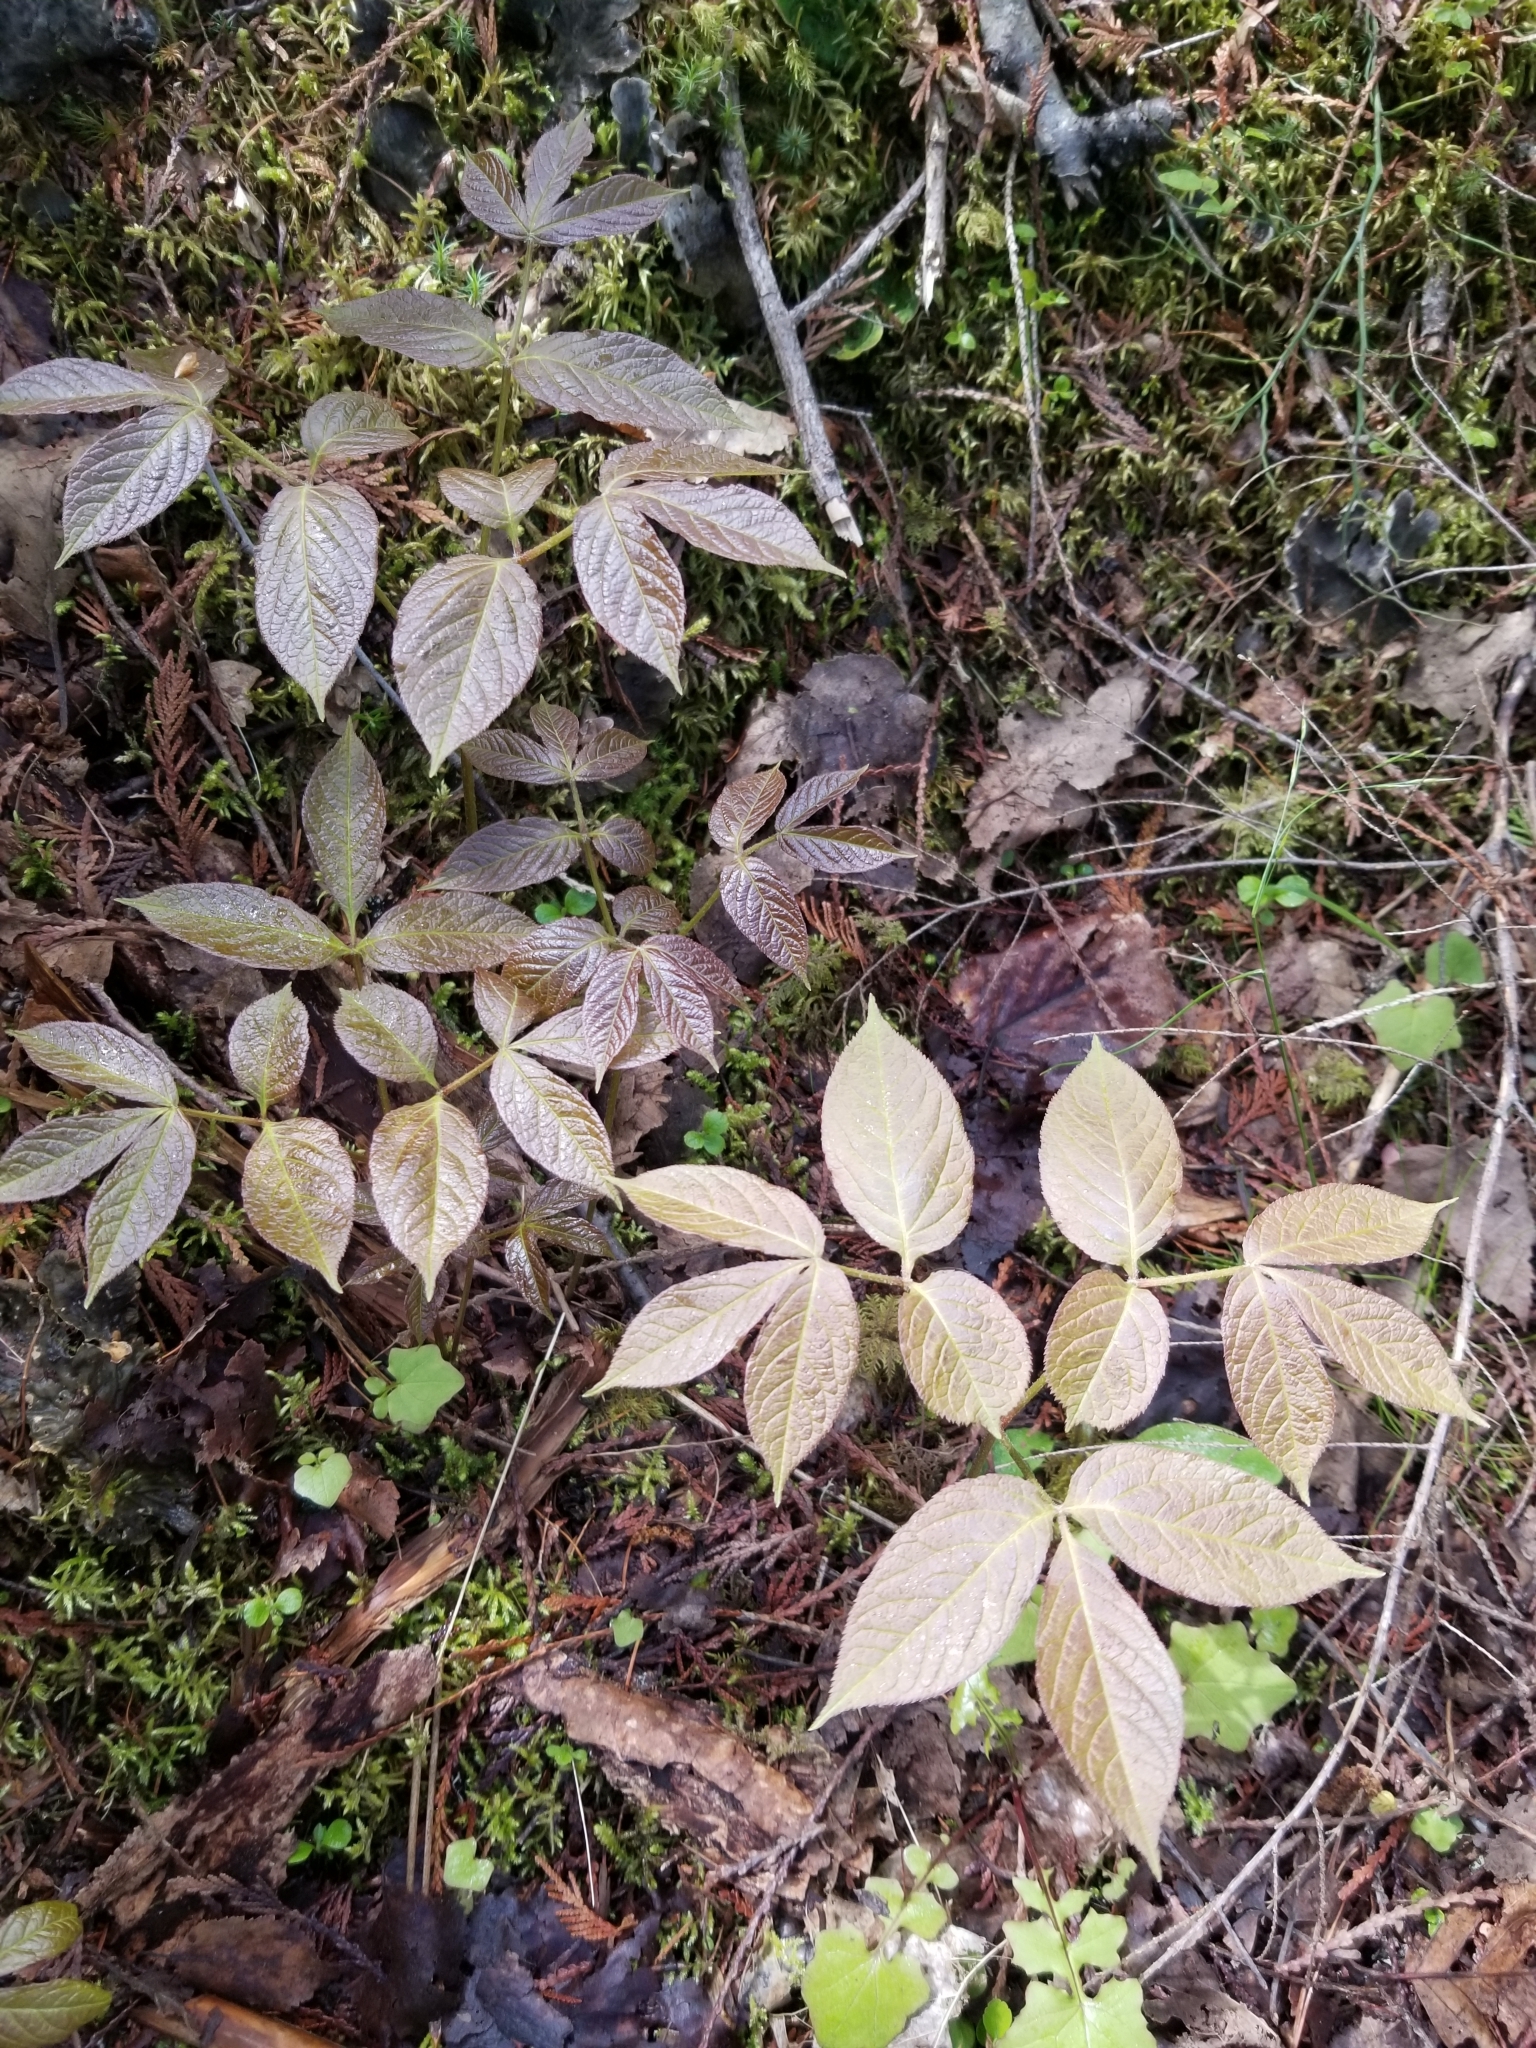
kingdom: Plantae
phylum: Tracheophyta
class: Magnoliopsida
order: Apiales
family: Araliaceae
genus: Aralia
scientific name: Aralia nudicaulis
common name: Wild sarsaparilla
